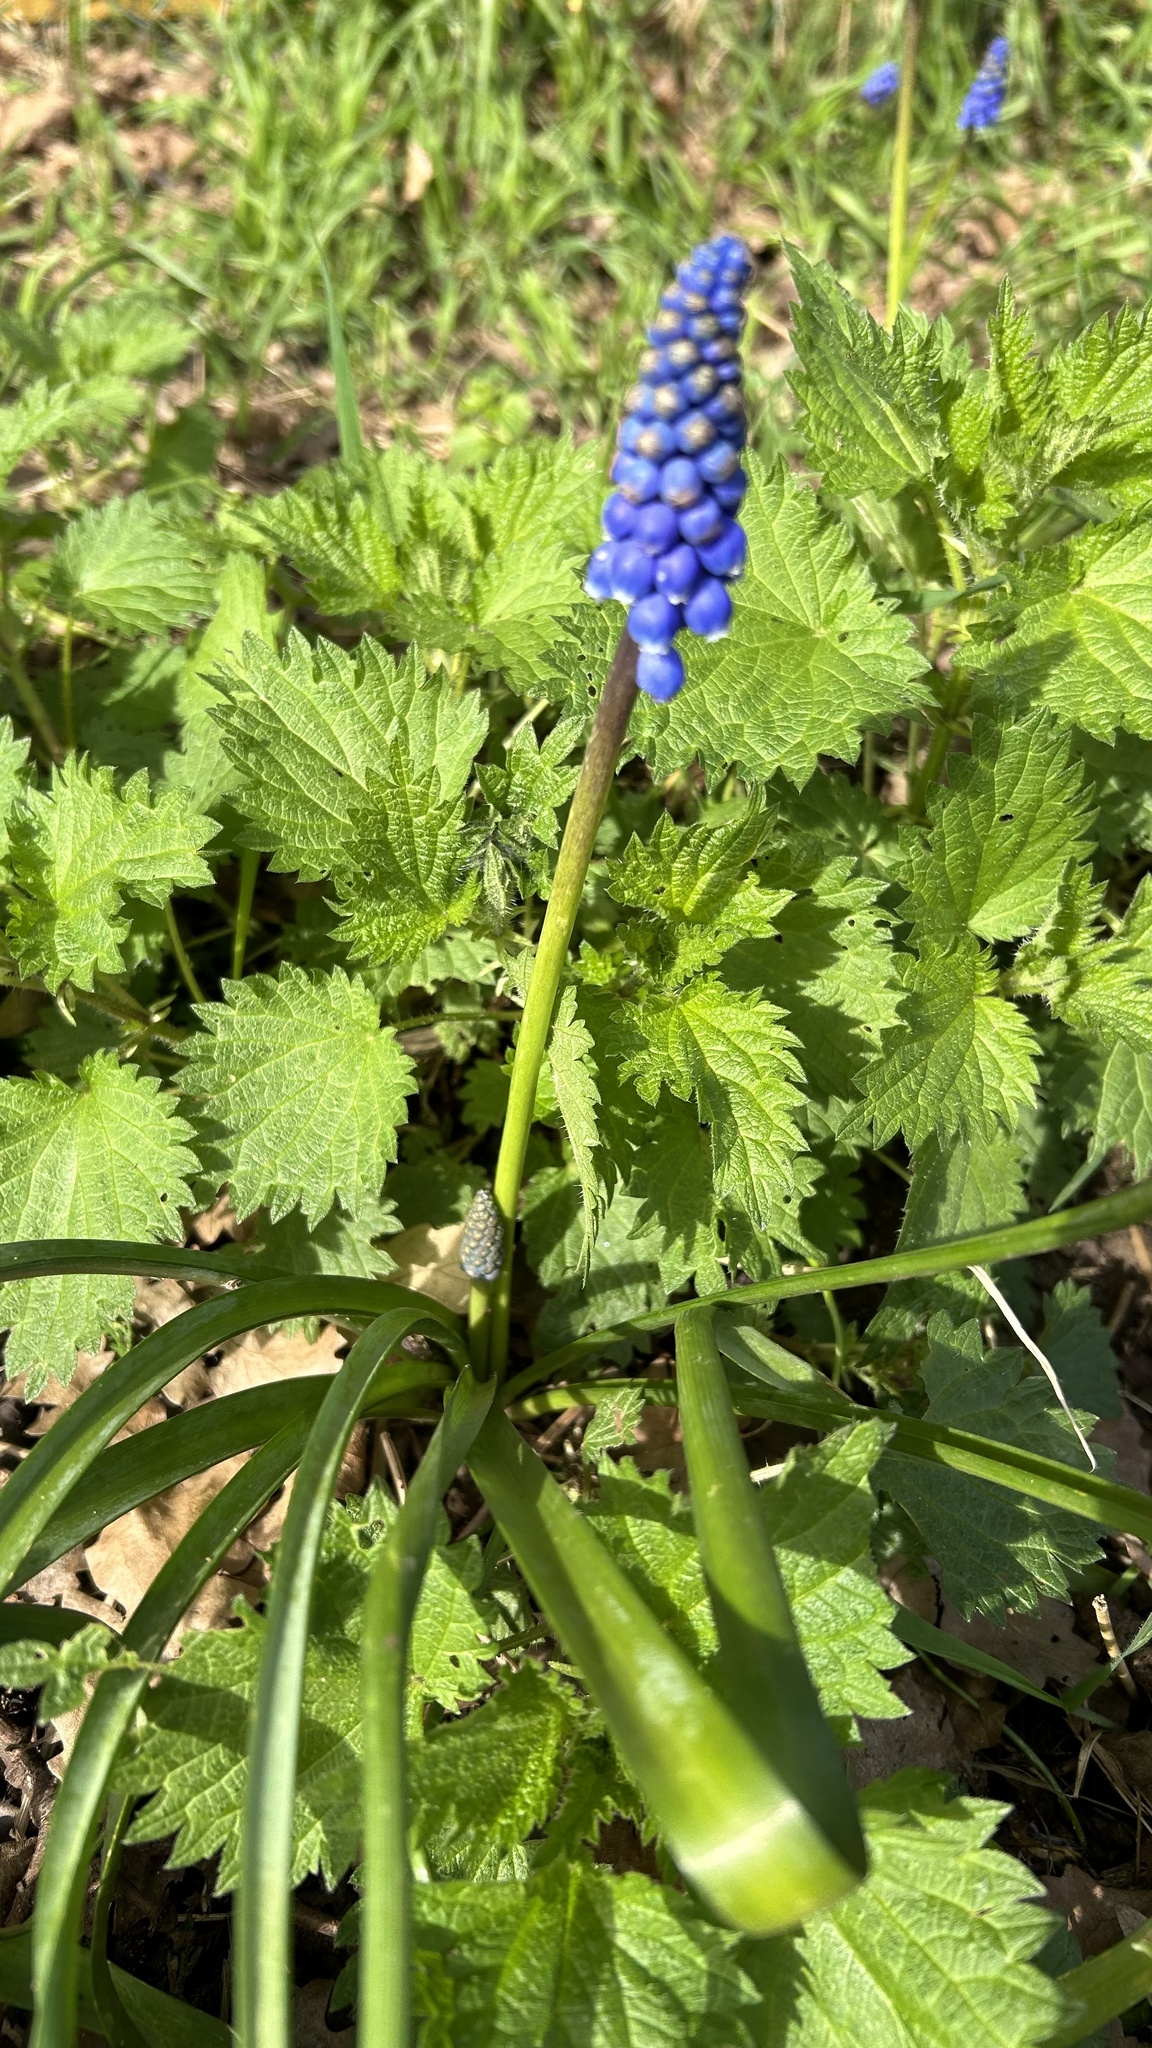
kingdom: Plantae
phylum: Tracheophyta
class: Liliopsida
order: Asparagales
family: Asparagaceae
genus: Muscari
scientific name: Muscari armeniacum
